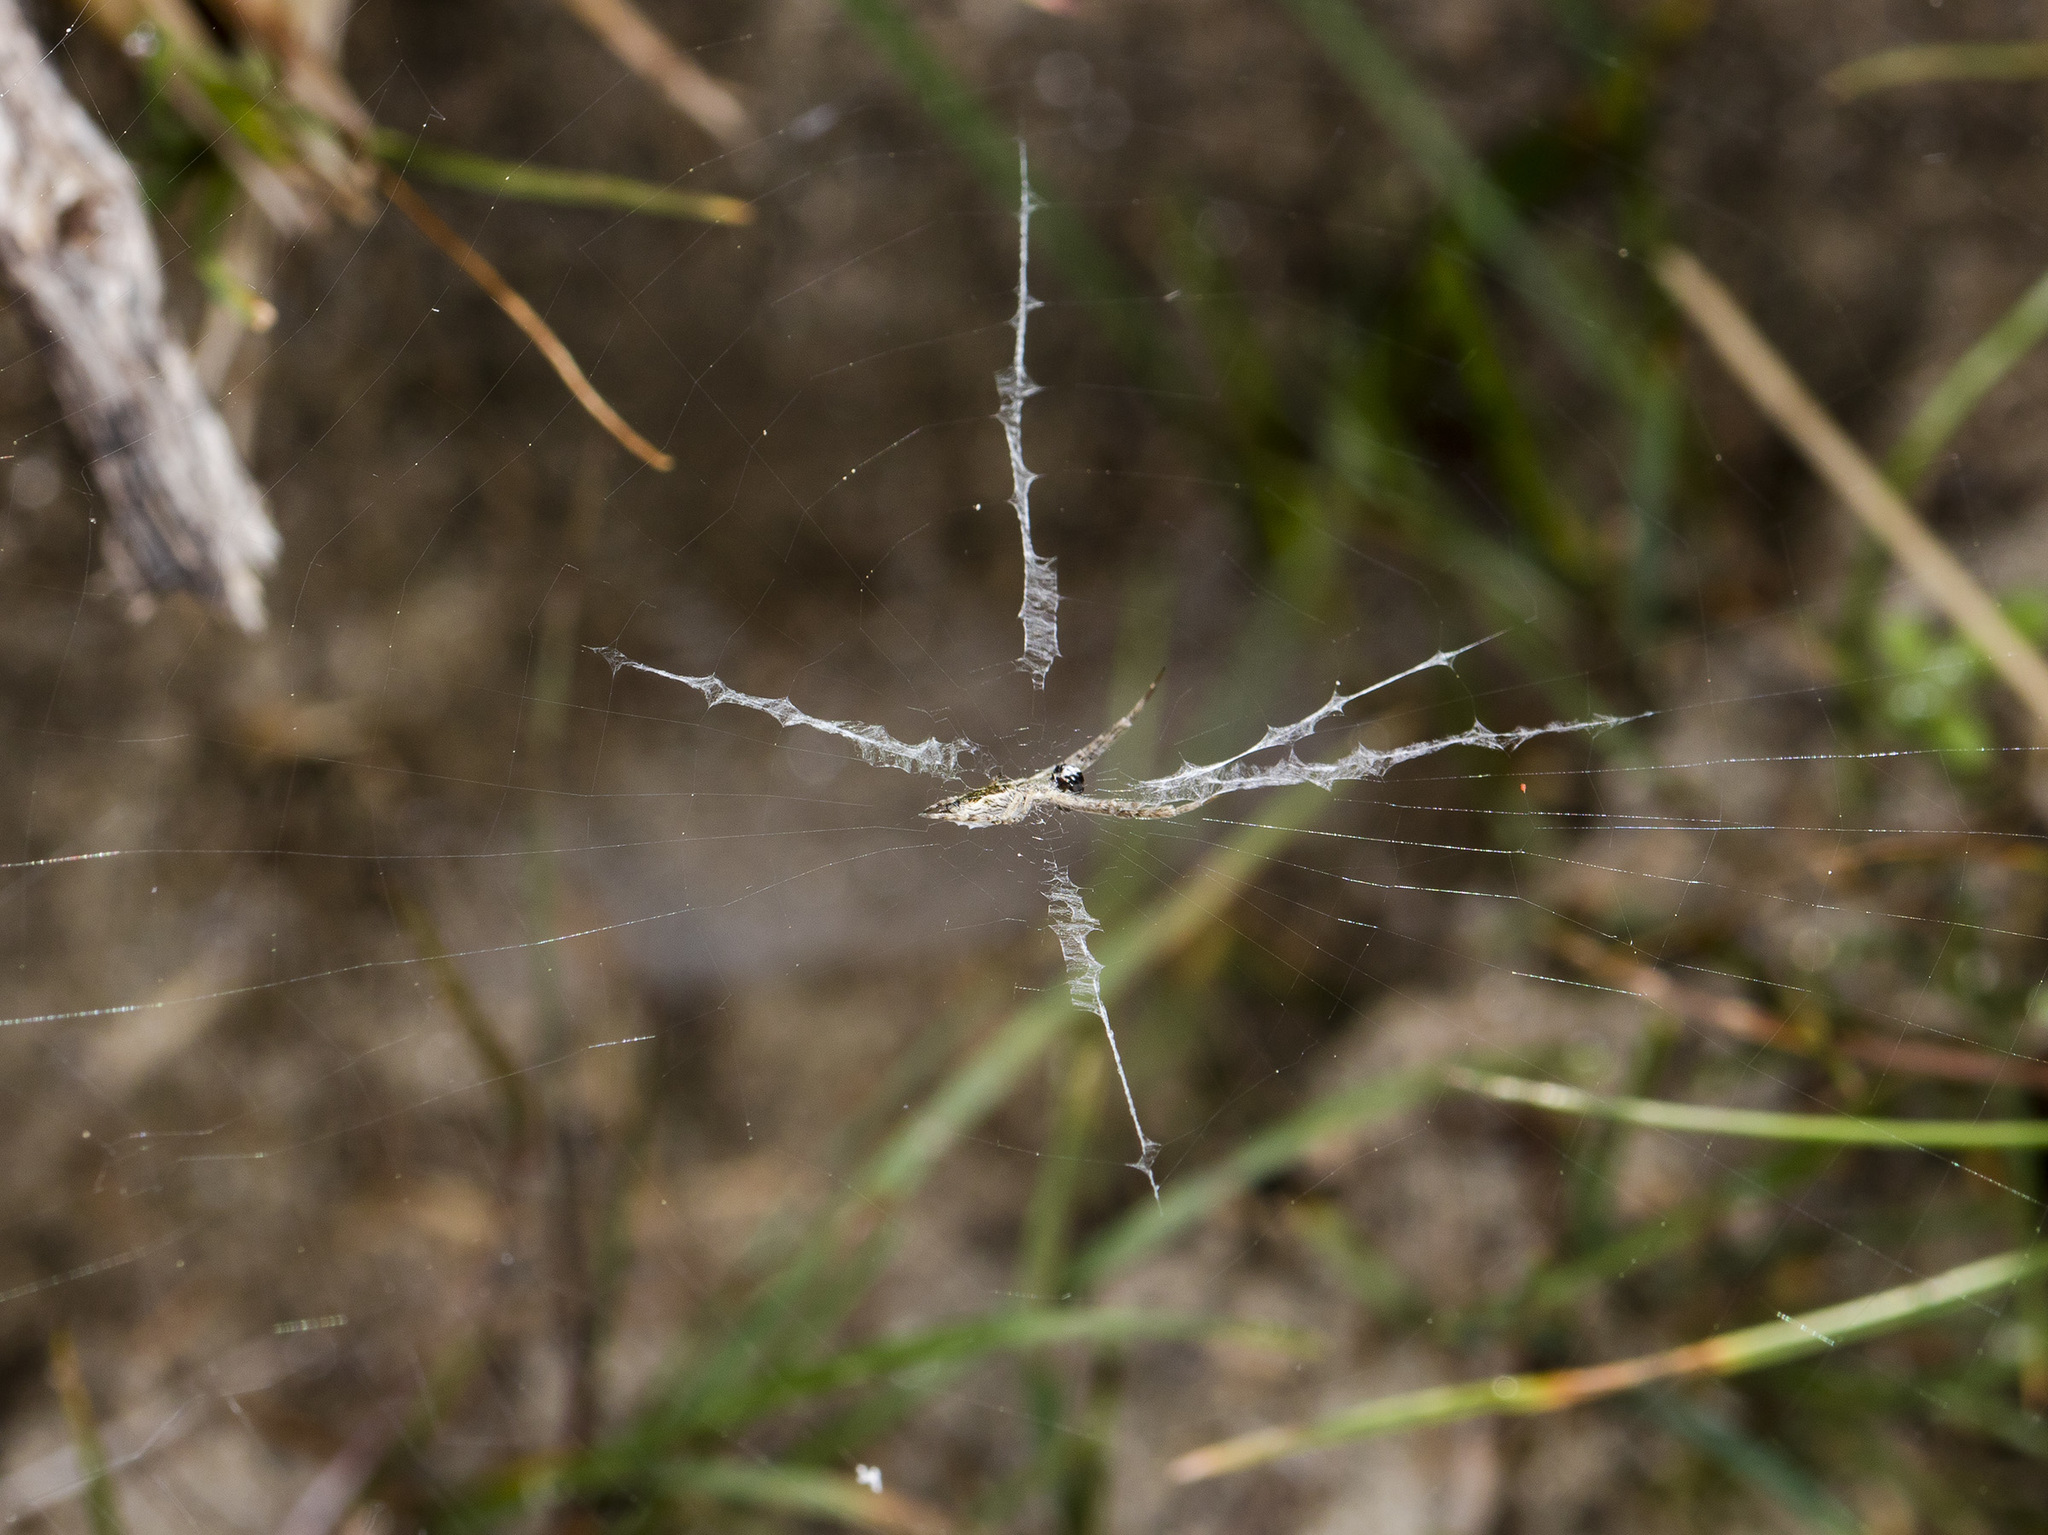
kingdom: Animalia
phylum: Arthropoda
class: Arachnida
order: Araneae
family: Uloboridae
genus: Uloborus
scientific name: Uloborus walckenaerius
